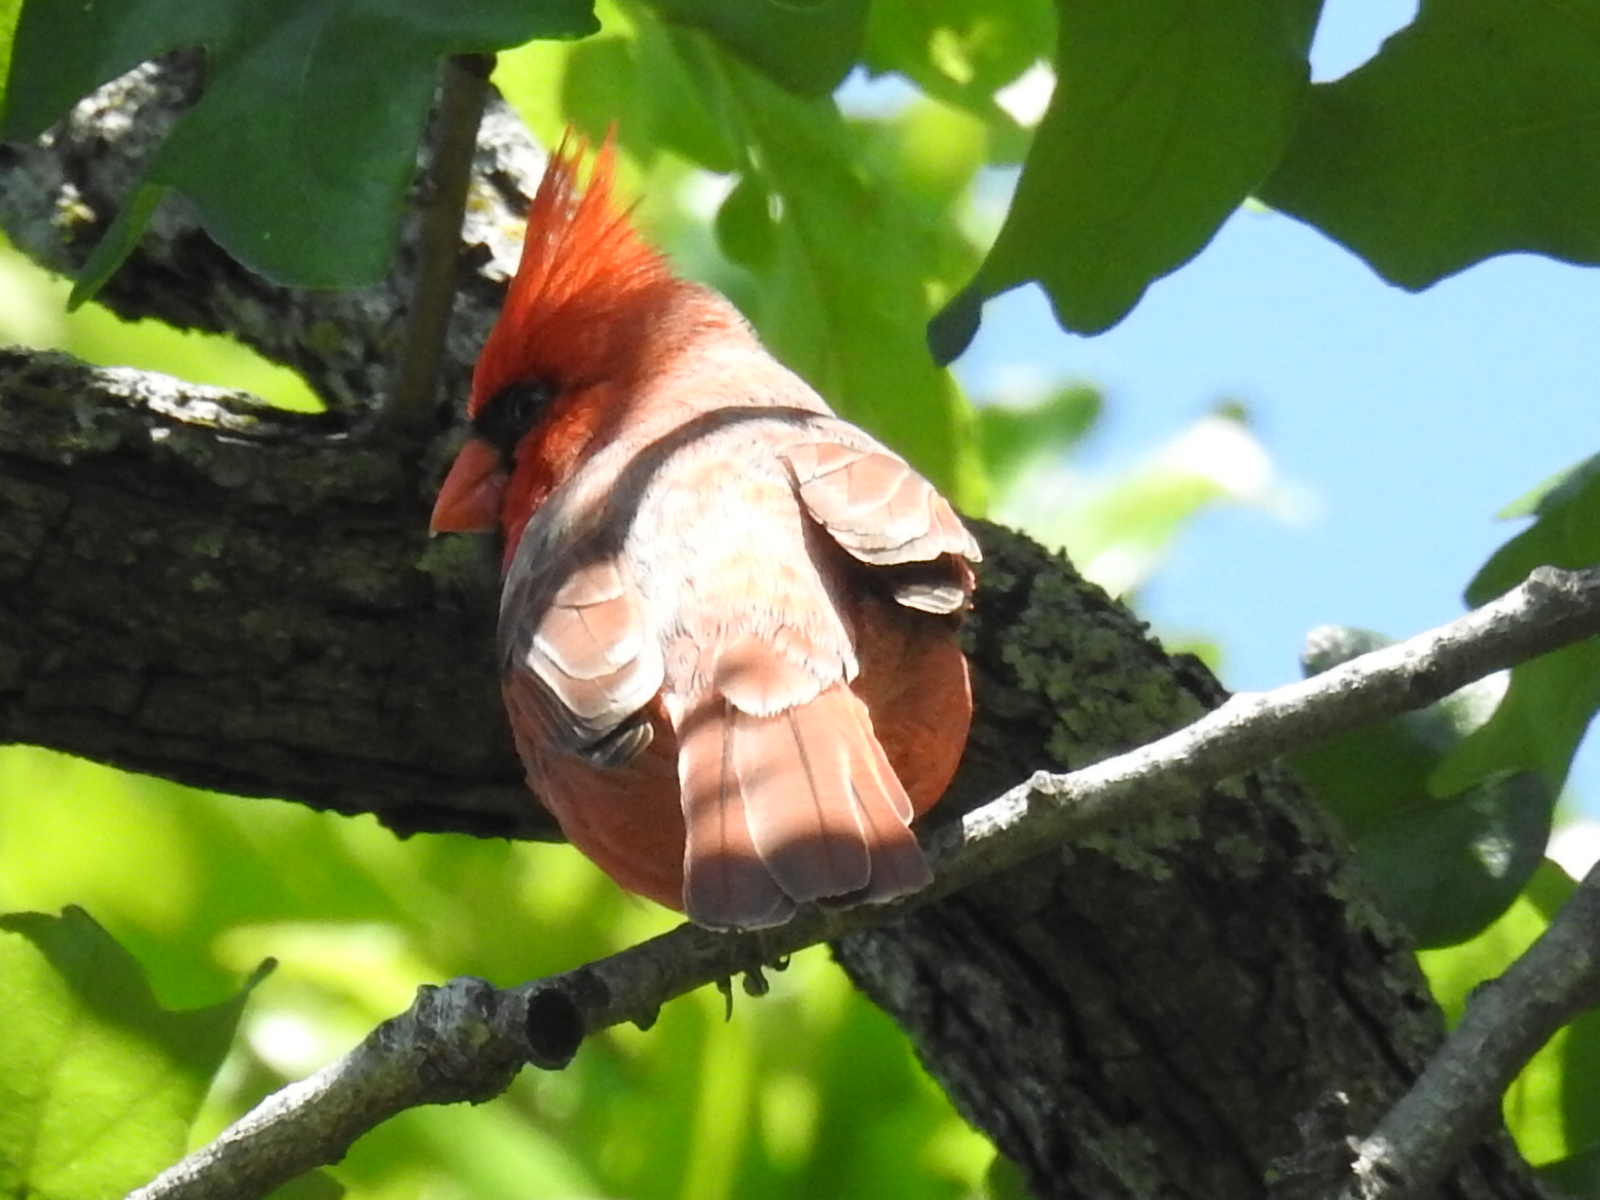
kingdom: Animalia
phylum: Chordata
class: Aves
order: Passeriformes
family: Cardinalidae
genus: Cardinalis
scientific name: Cardinalis cardinalis
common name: Northern cardinal
